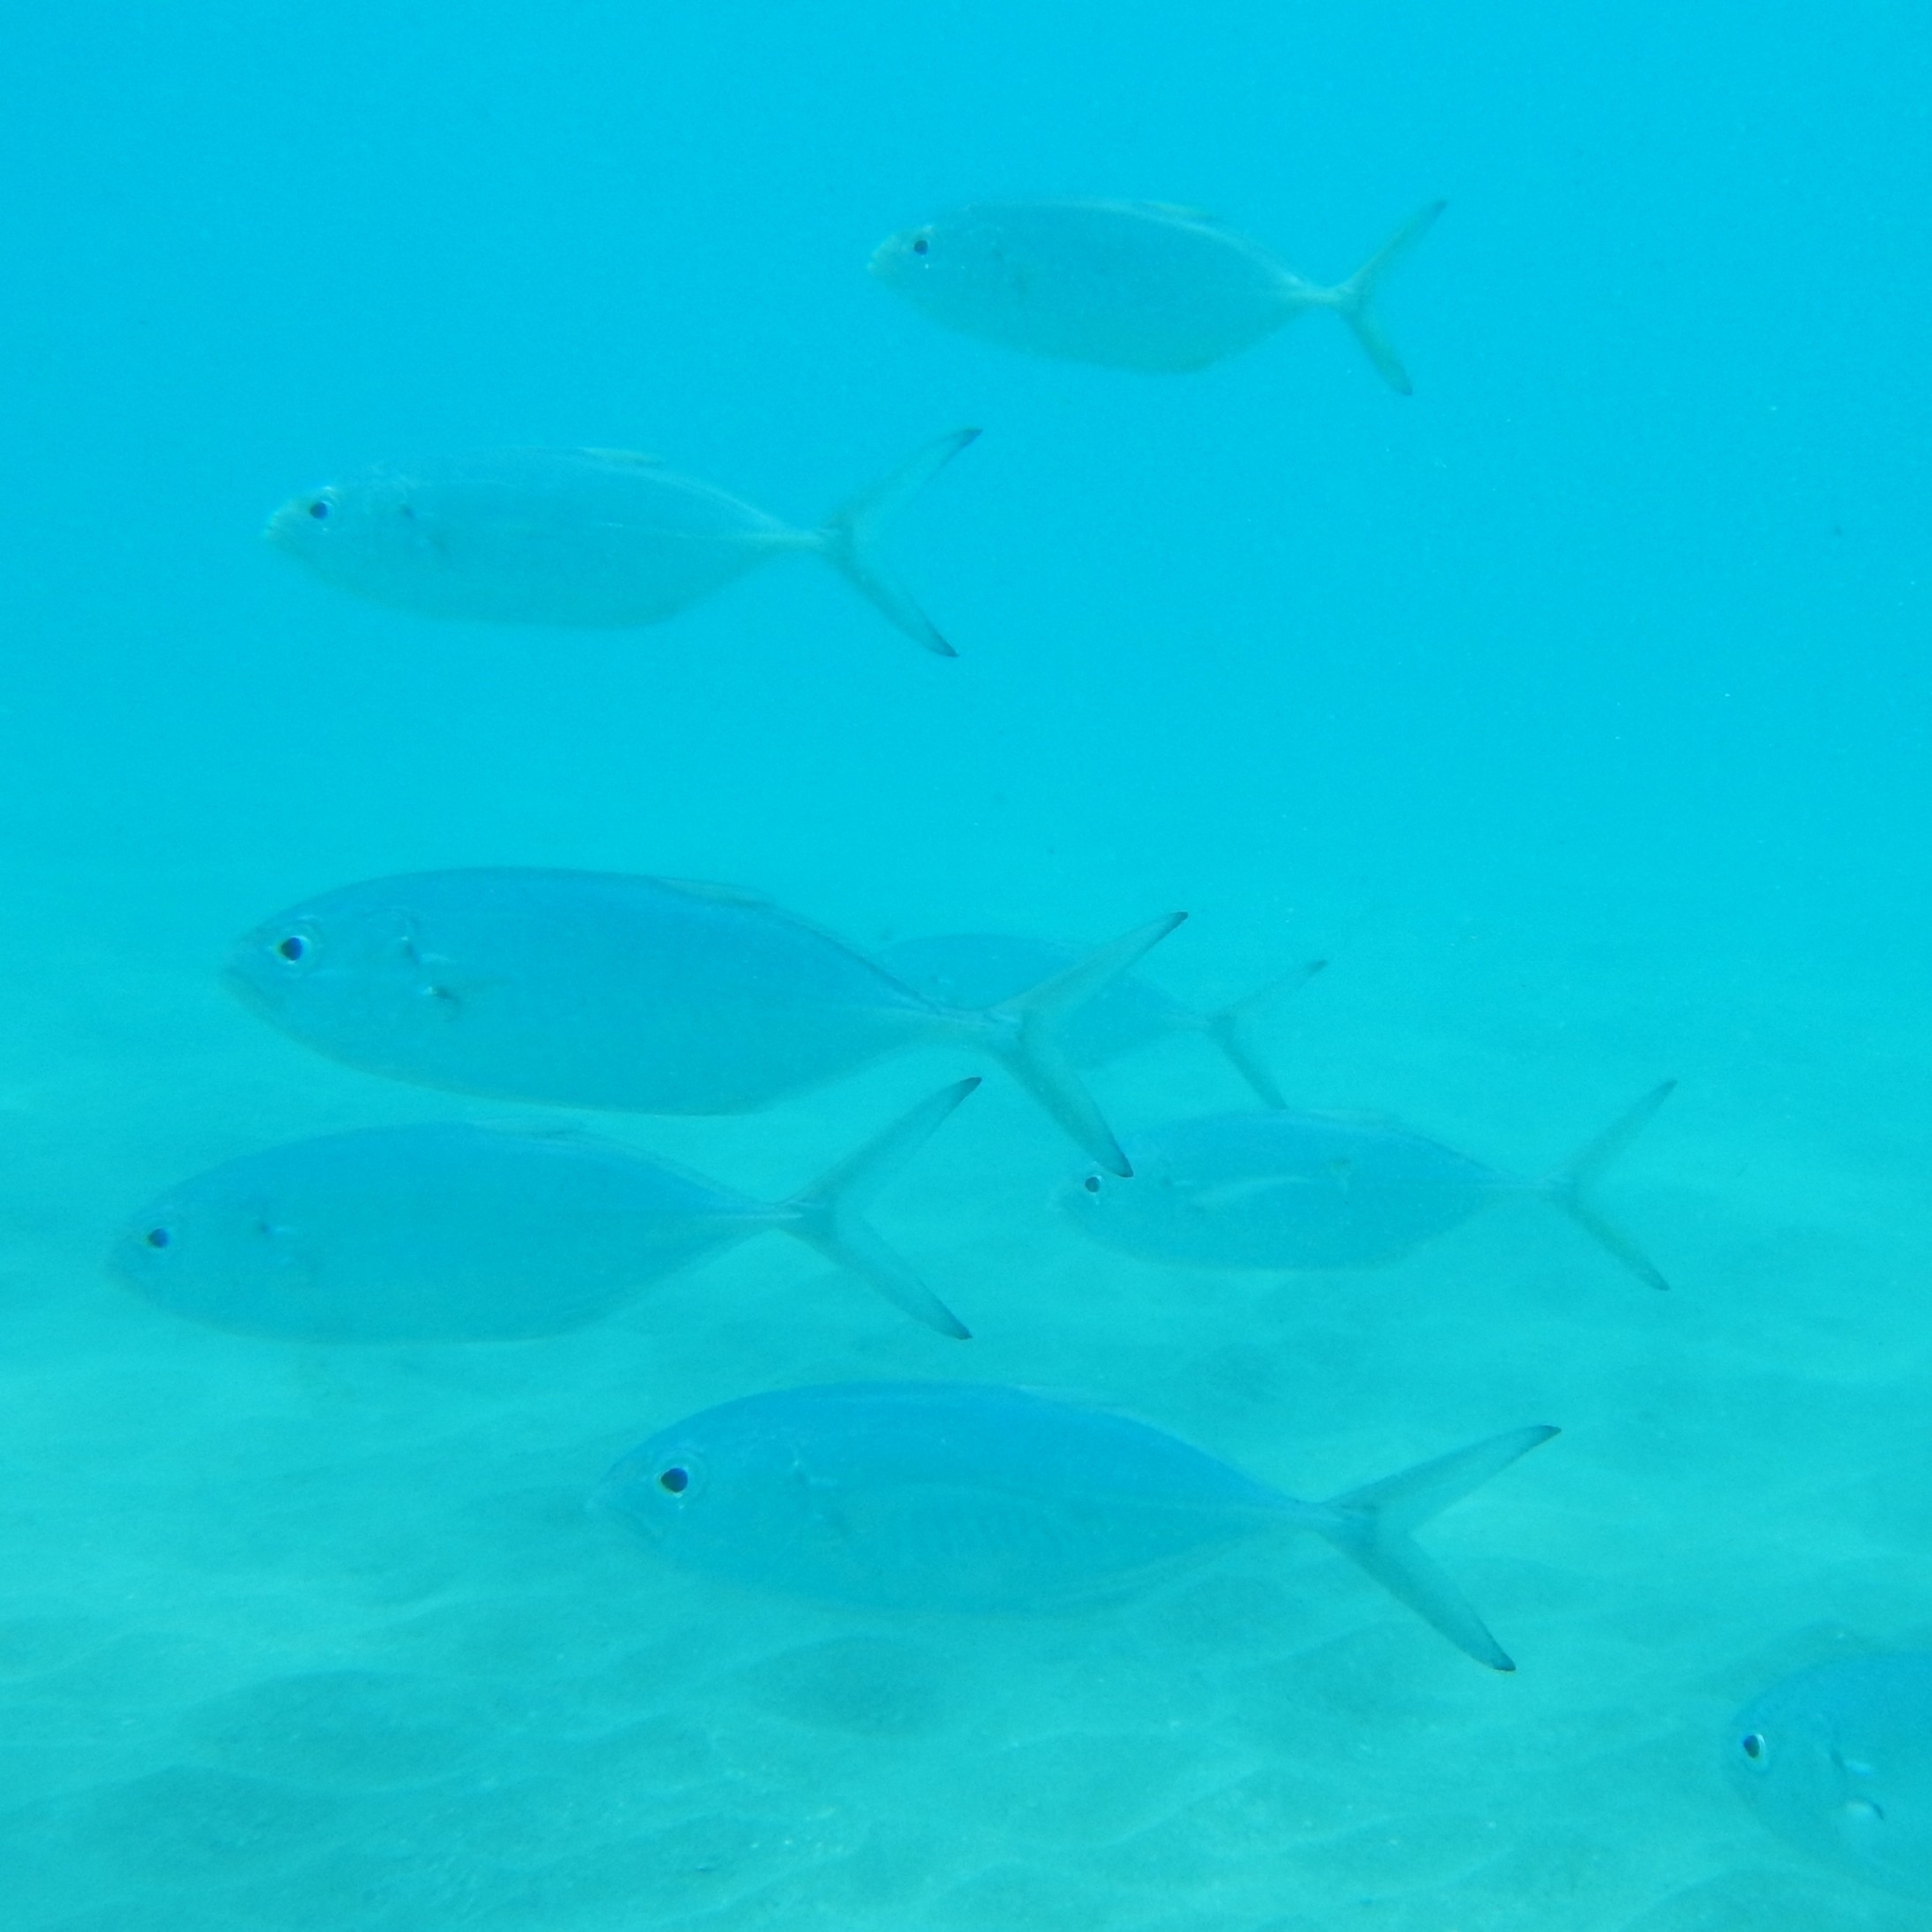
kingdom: Animalia
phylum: Chordata
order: Perciformes
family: Carangidae
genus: Caranx
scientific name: Caranx crysos
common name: Blue runner
